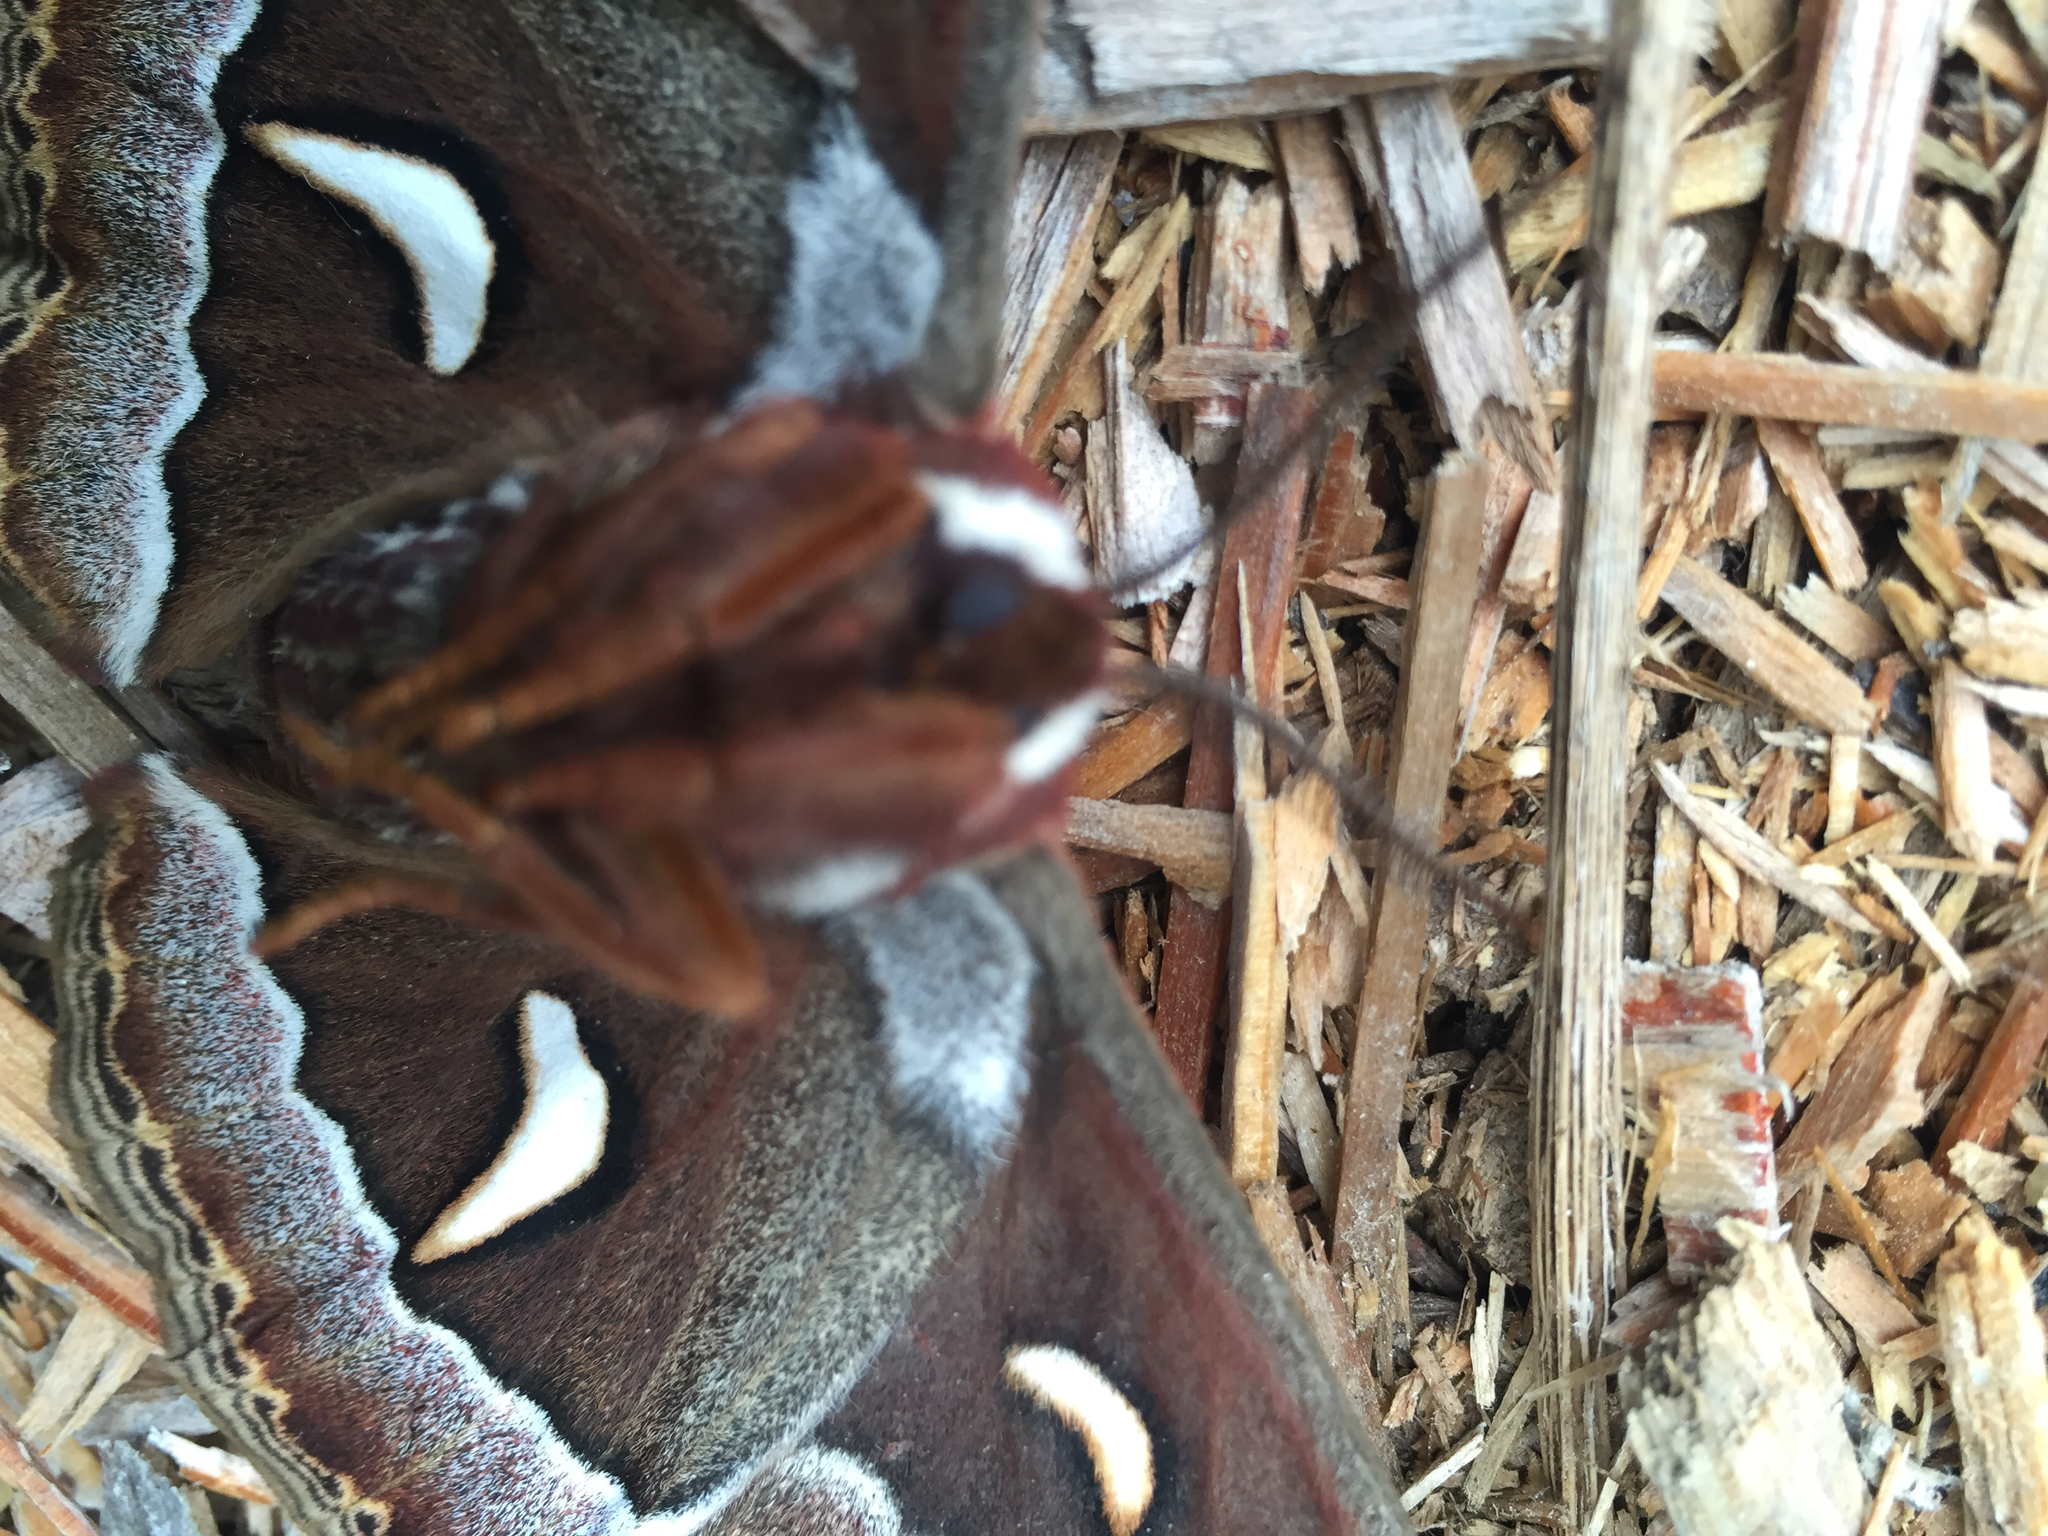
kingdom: Animalia
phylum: Arthropoda
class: Insecta
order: Lepidoptera
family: Saturniidae
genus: Hyalophora
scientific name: Hyalophora euryalus
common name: Ceanothus silkmoth
